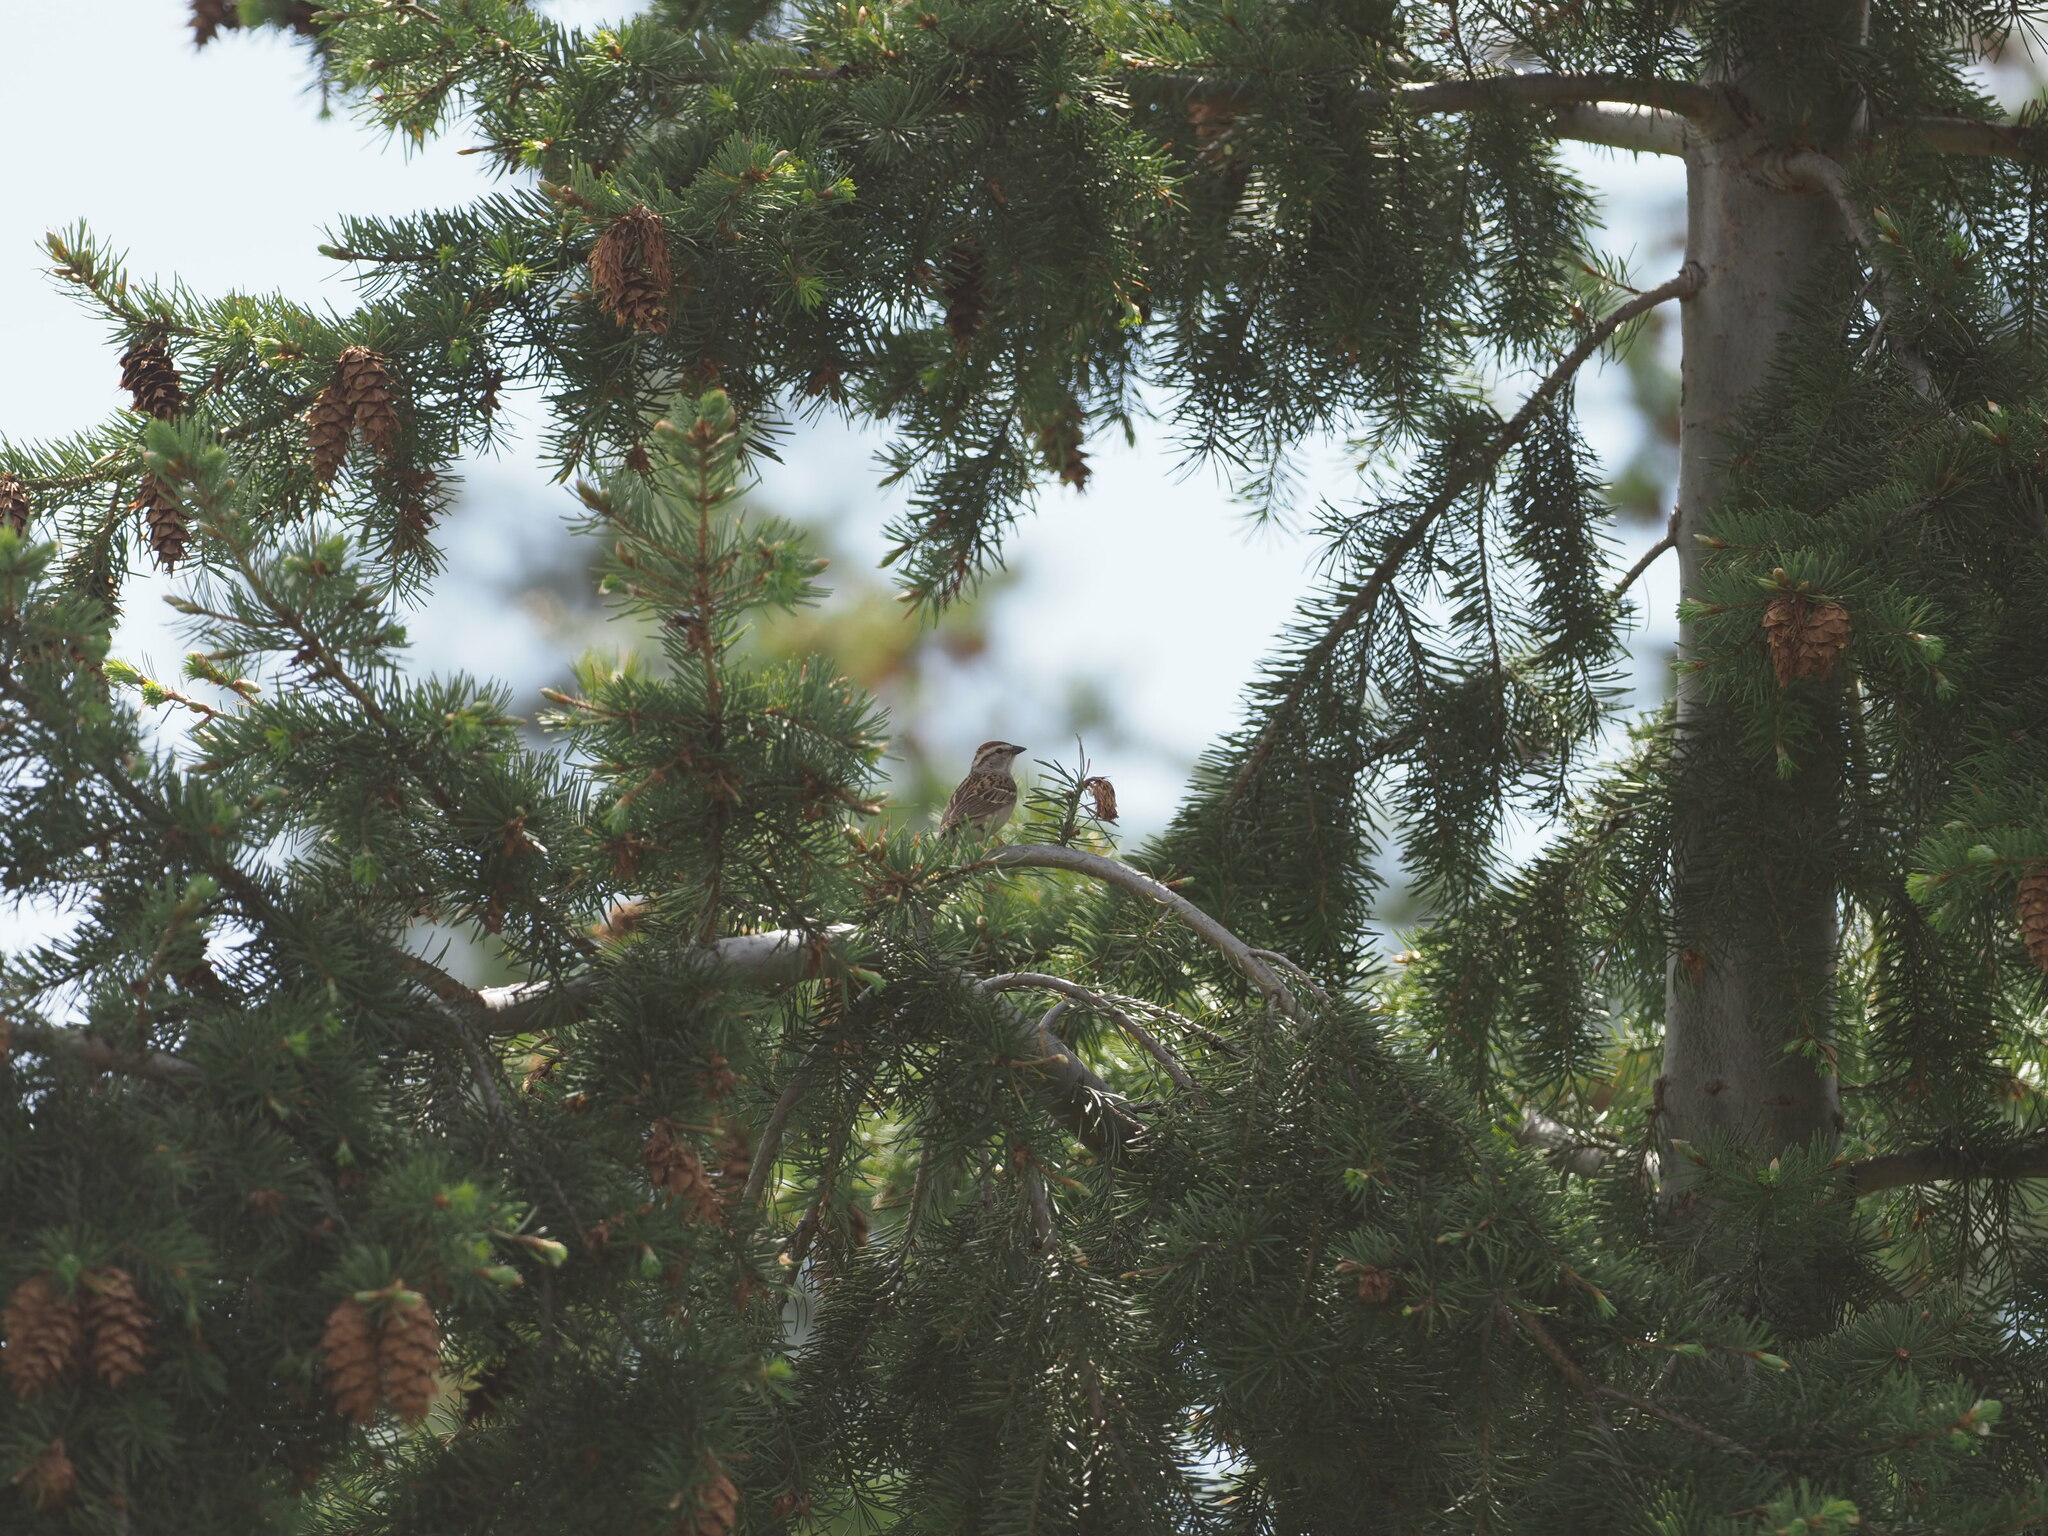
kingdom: Animalia
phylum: Chordata
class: Aves
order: Passeriformes
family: Passerellidae
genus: Spizella
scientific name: Spizella passerina
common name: Chipping sparrow
